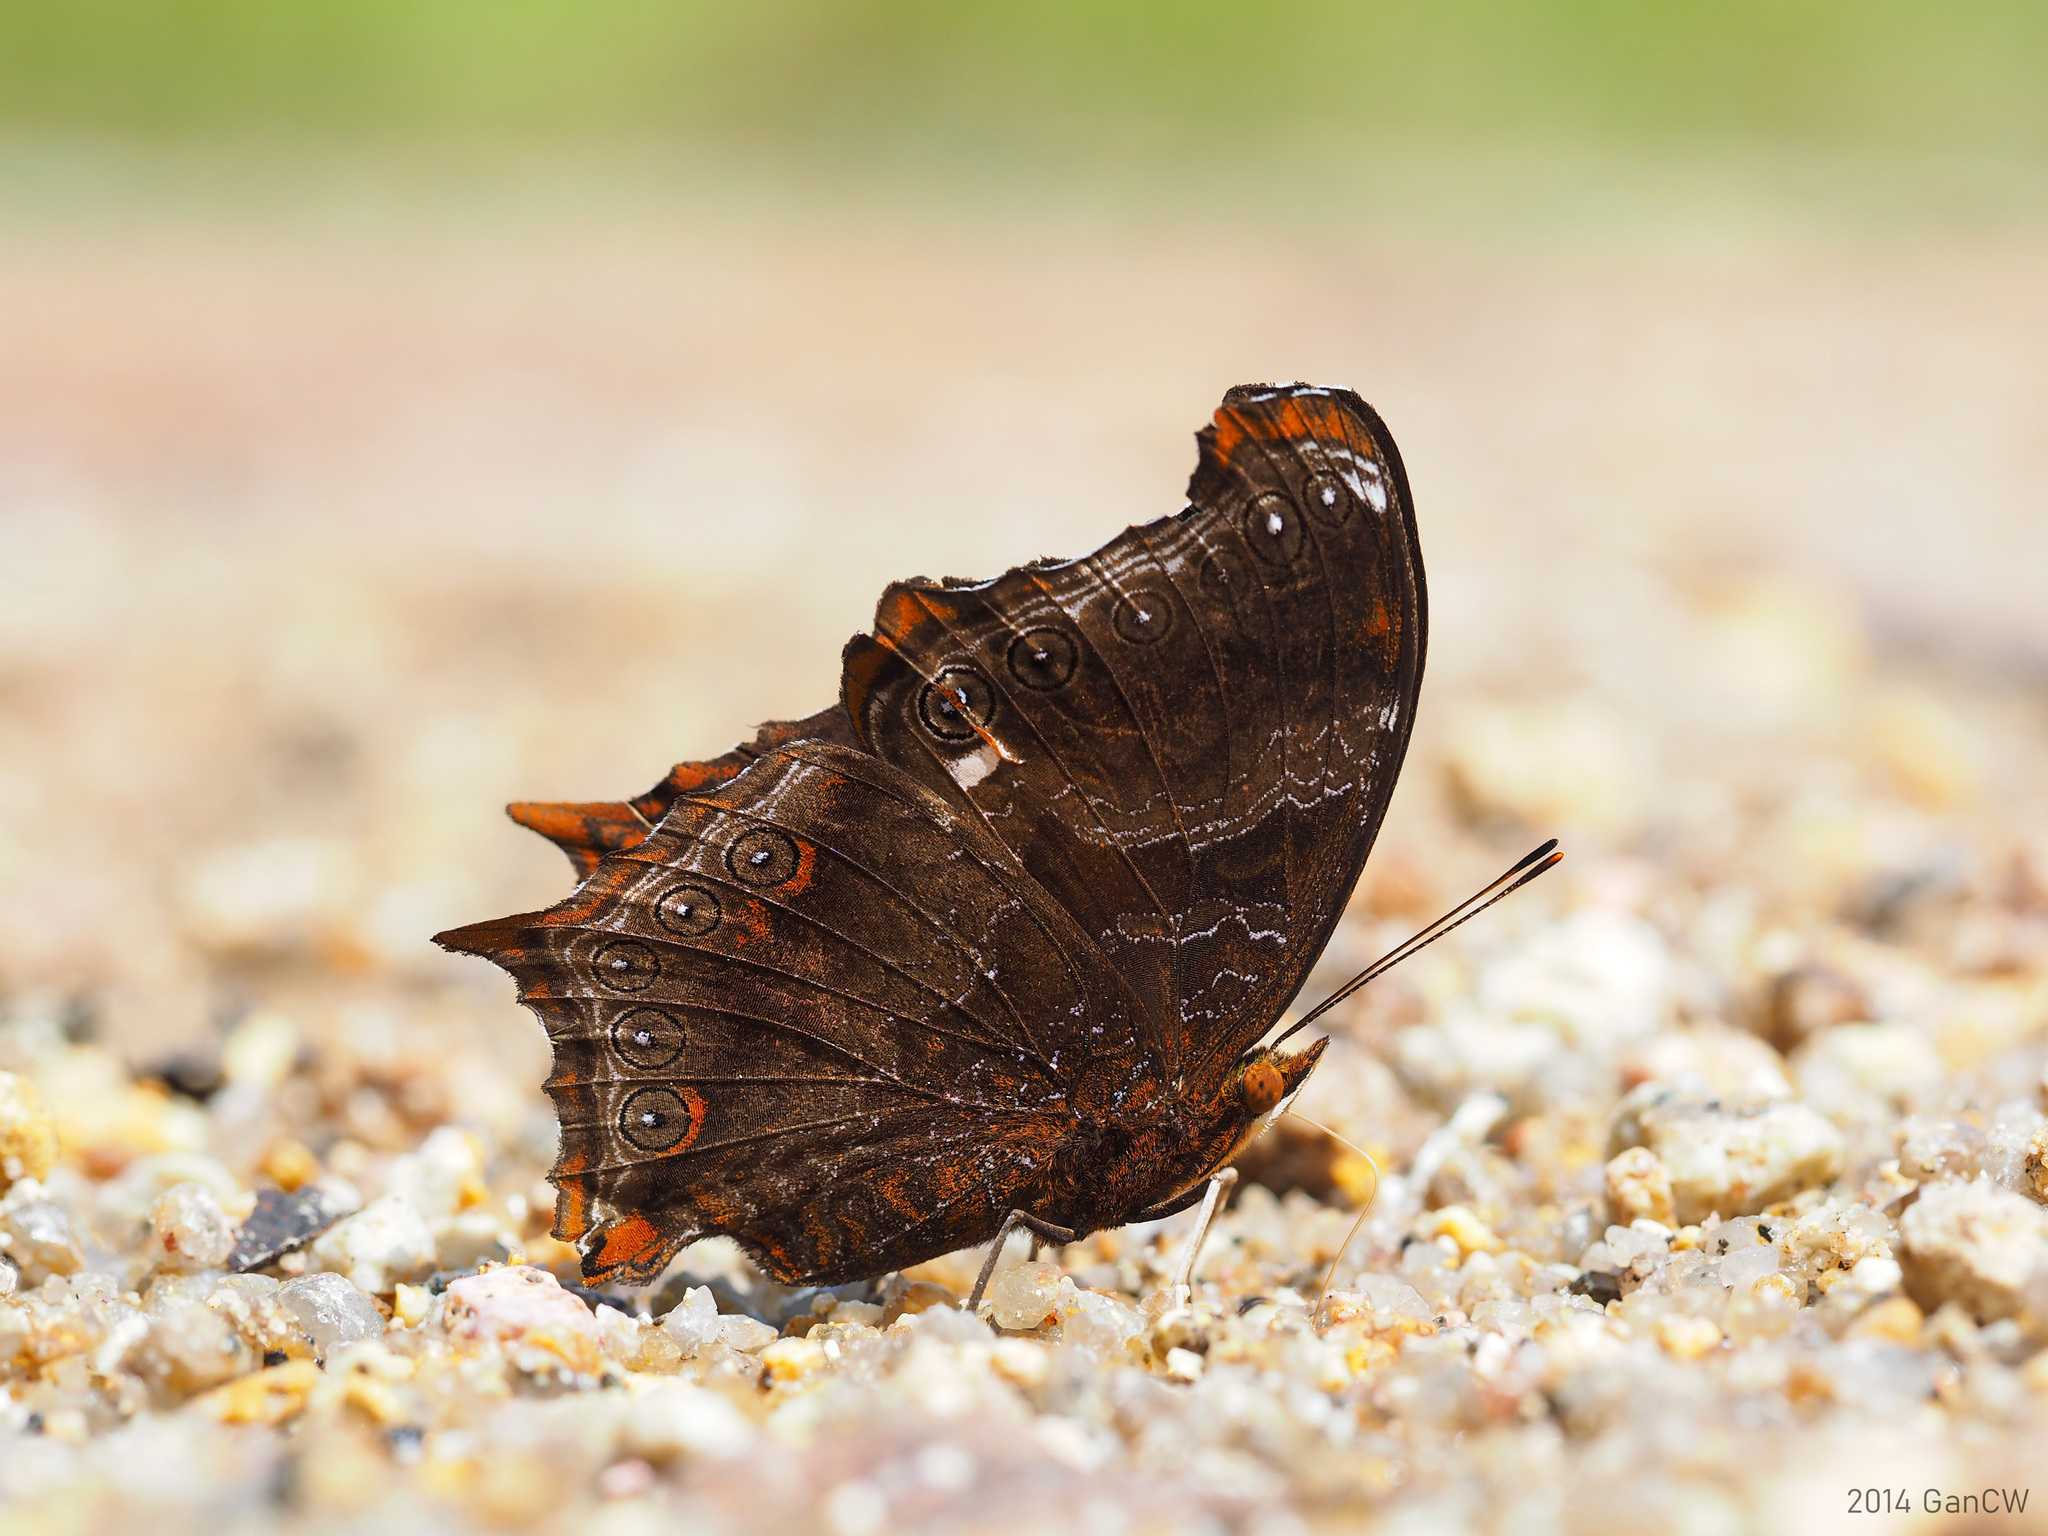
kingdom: Animalia
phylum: Arthropoda
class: Insecta
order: Lepidoptera
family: Nymphalidae
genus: Rhinopalpa
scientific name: Rhinopalpa polynice
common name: Wizard
